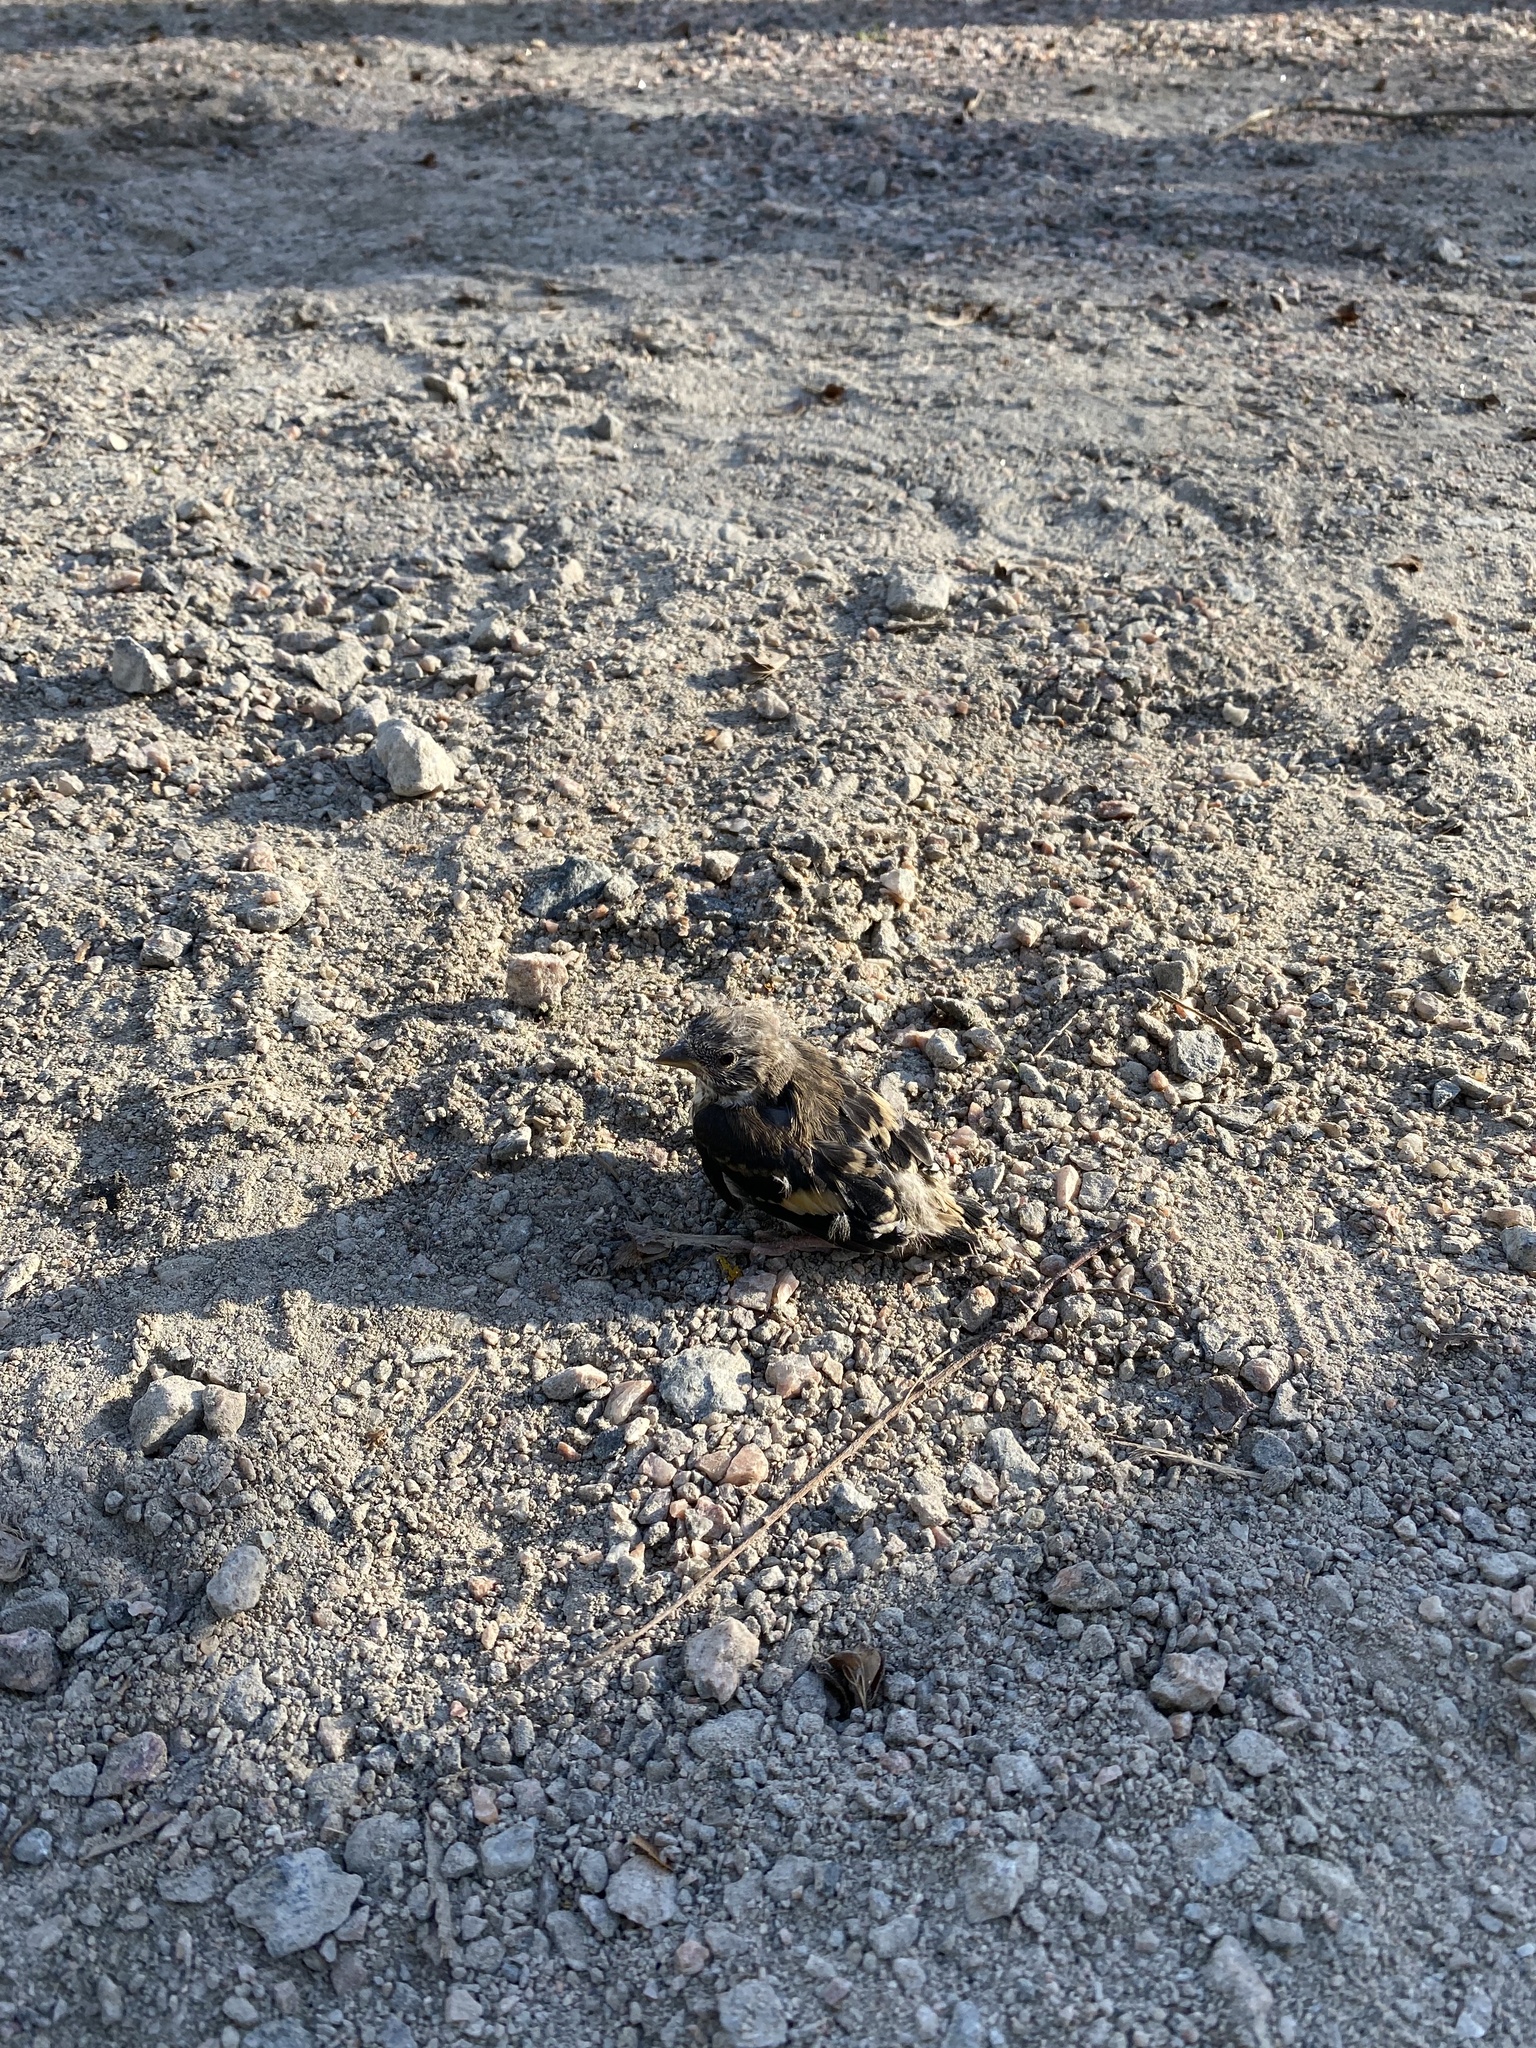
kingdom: Animalia
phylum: Chordata
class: Aves
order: Passeriformes
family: Fringillidae
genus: Carduelis
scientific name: Carduelis carduelis
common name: European goldfinch
